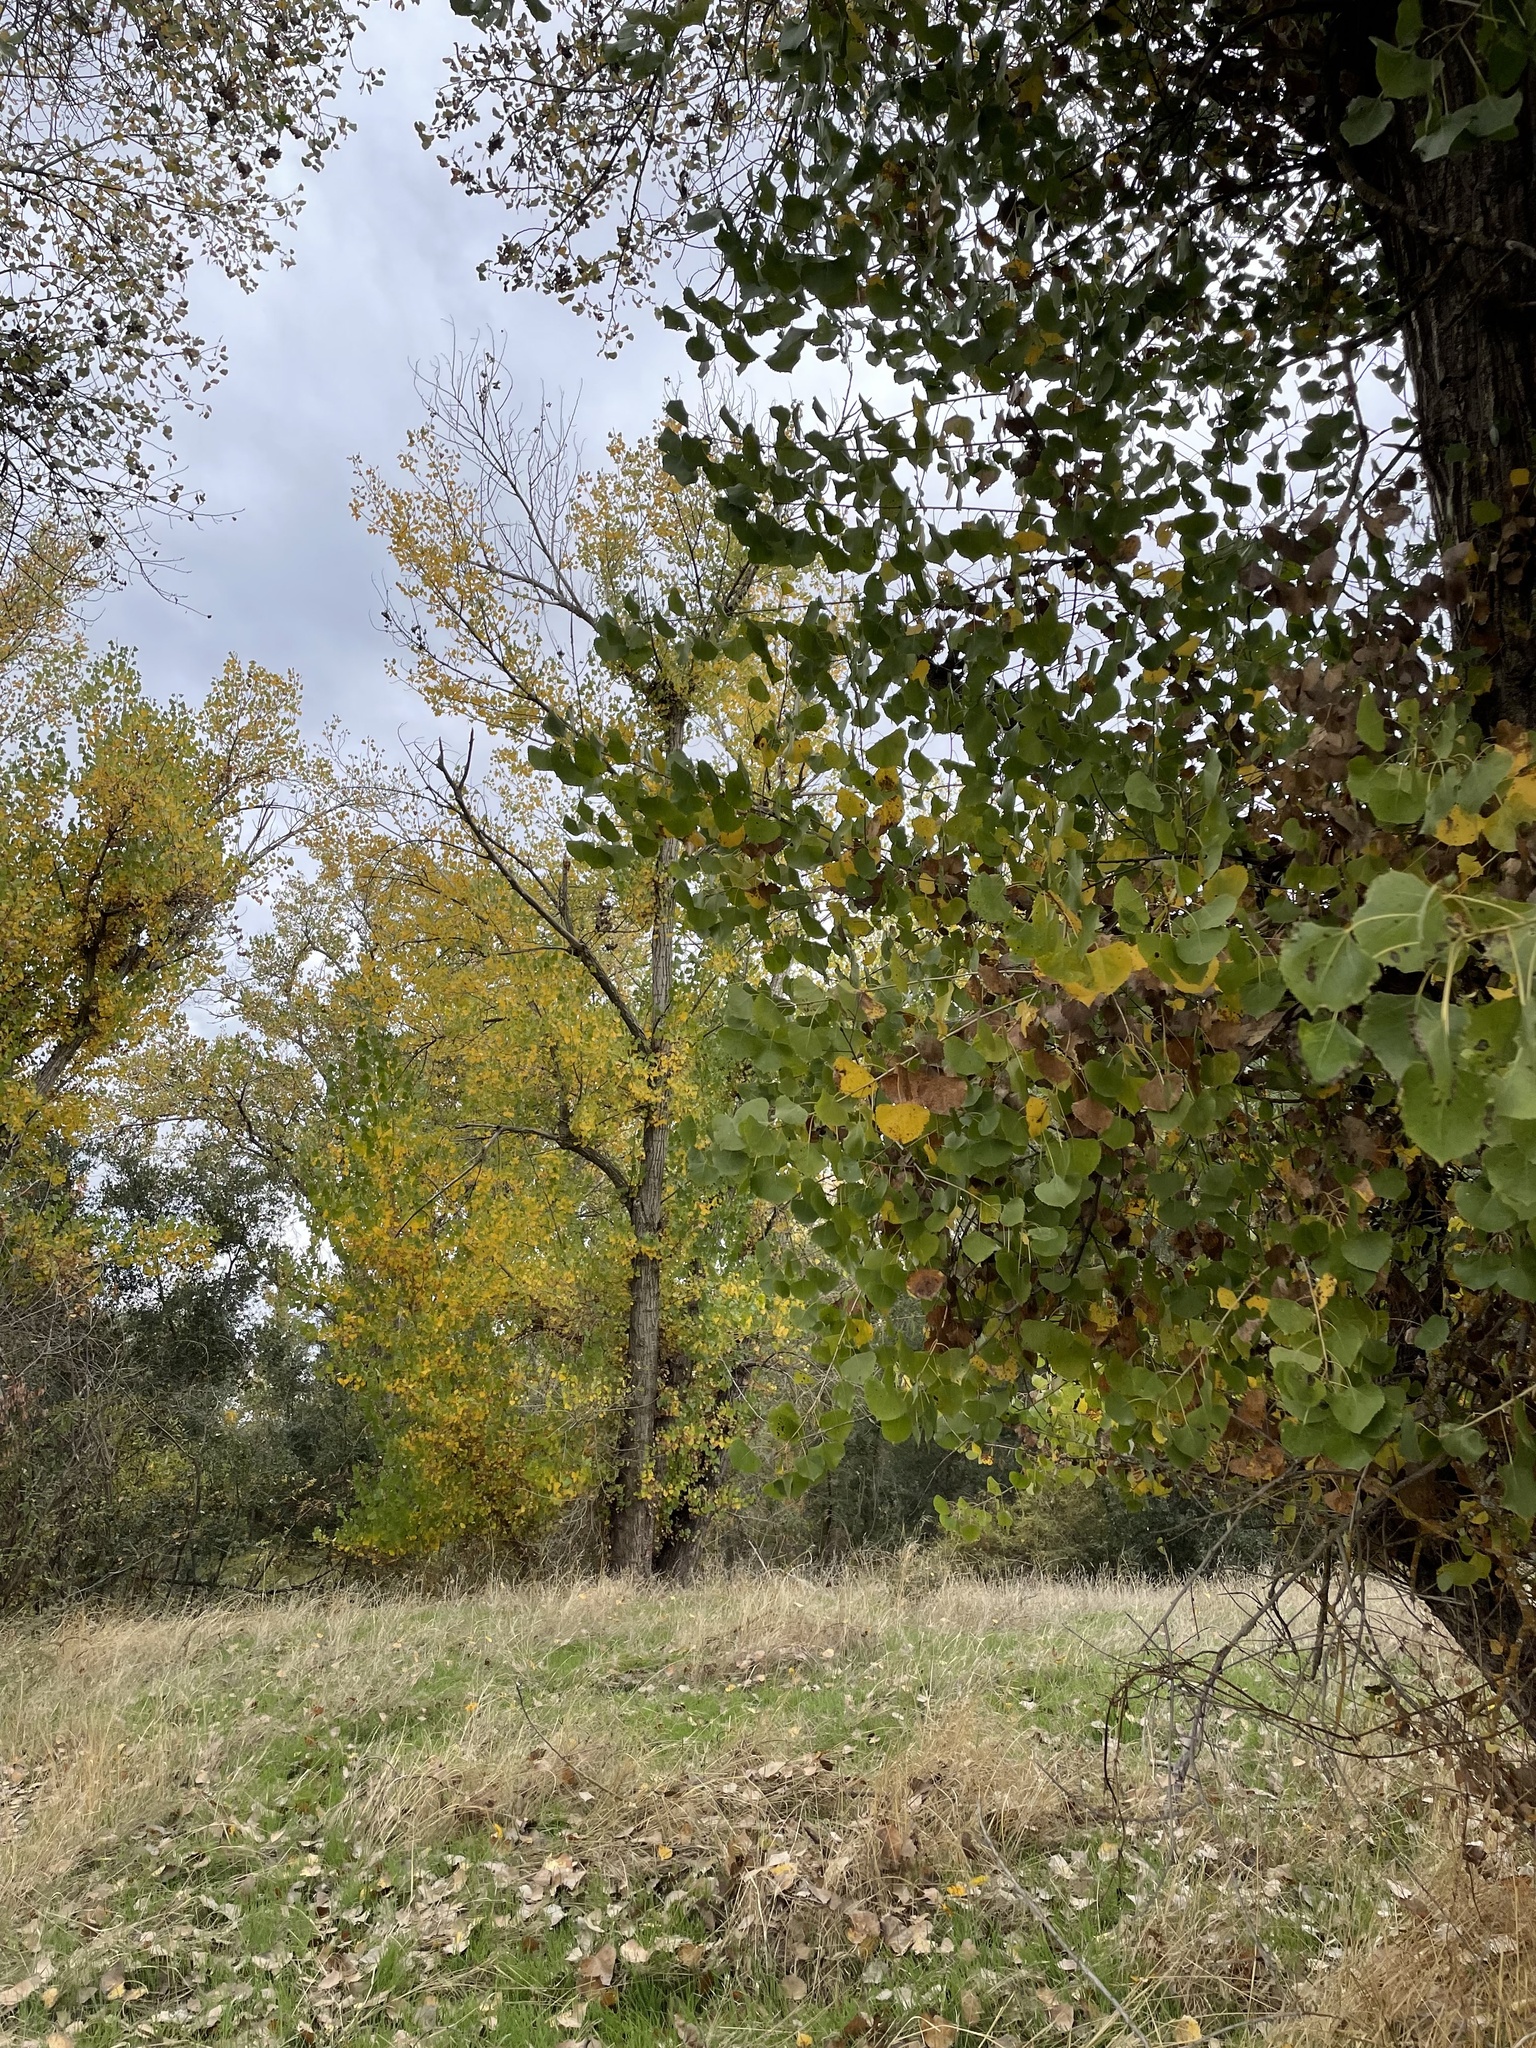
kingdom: Plantae
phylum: Tracheophyta
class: Magnoliopsida
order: Malpighiales
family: Salicaceae
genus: Populus
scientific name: Populus fremontii
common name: Fremont's cottonwood
